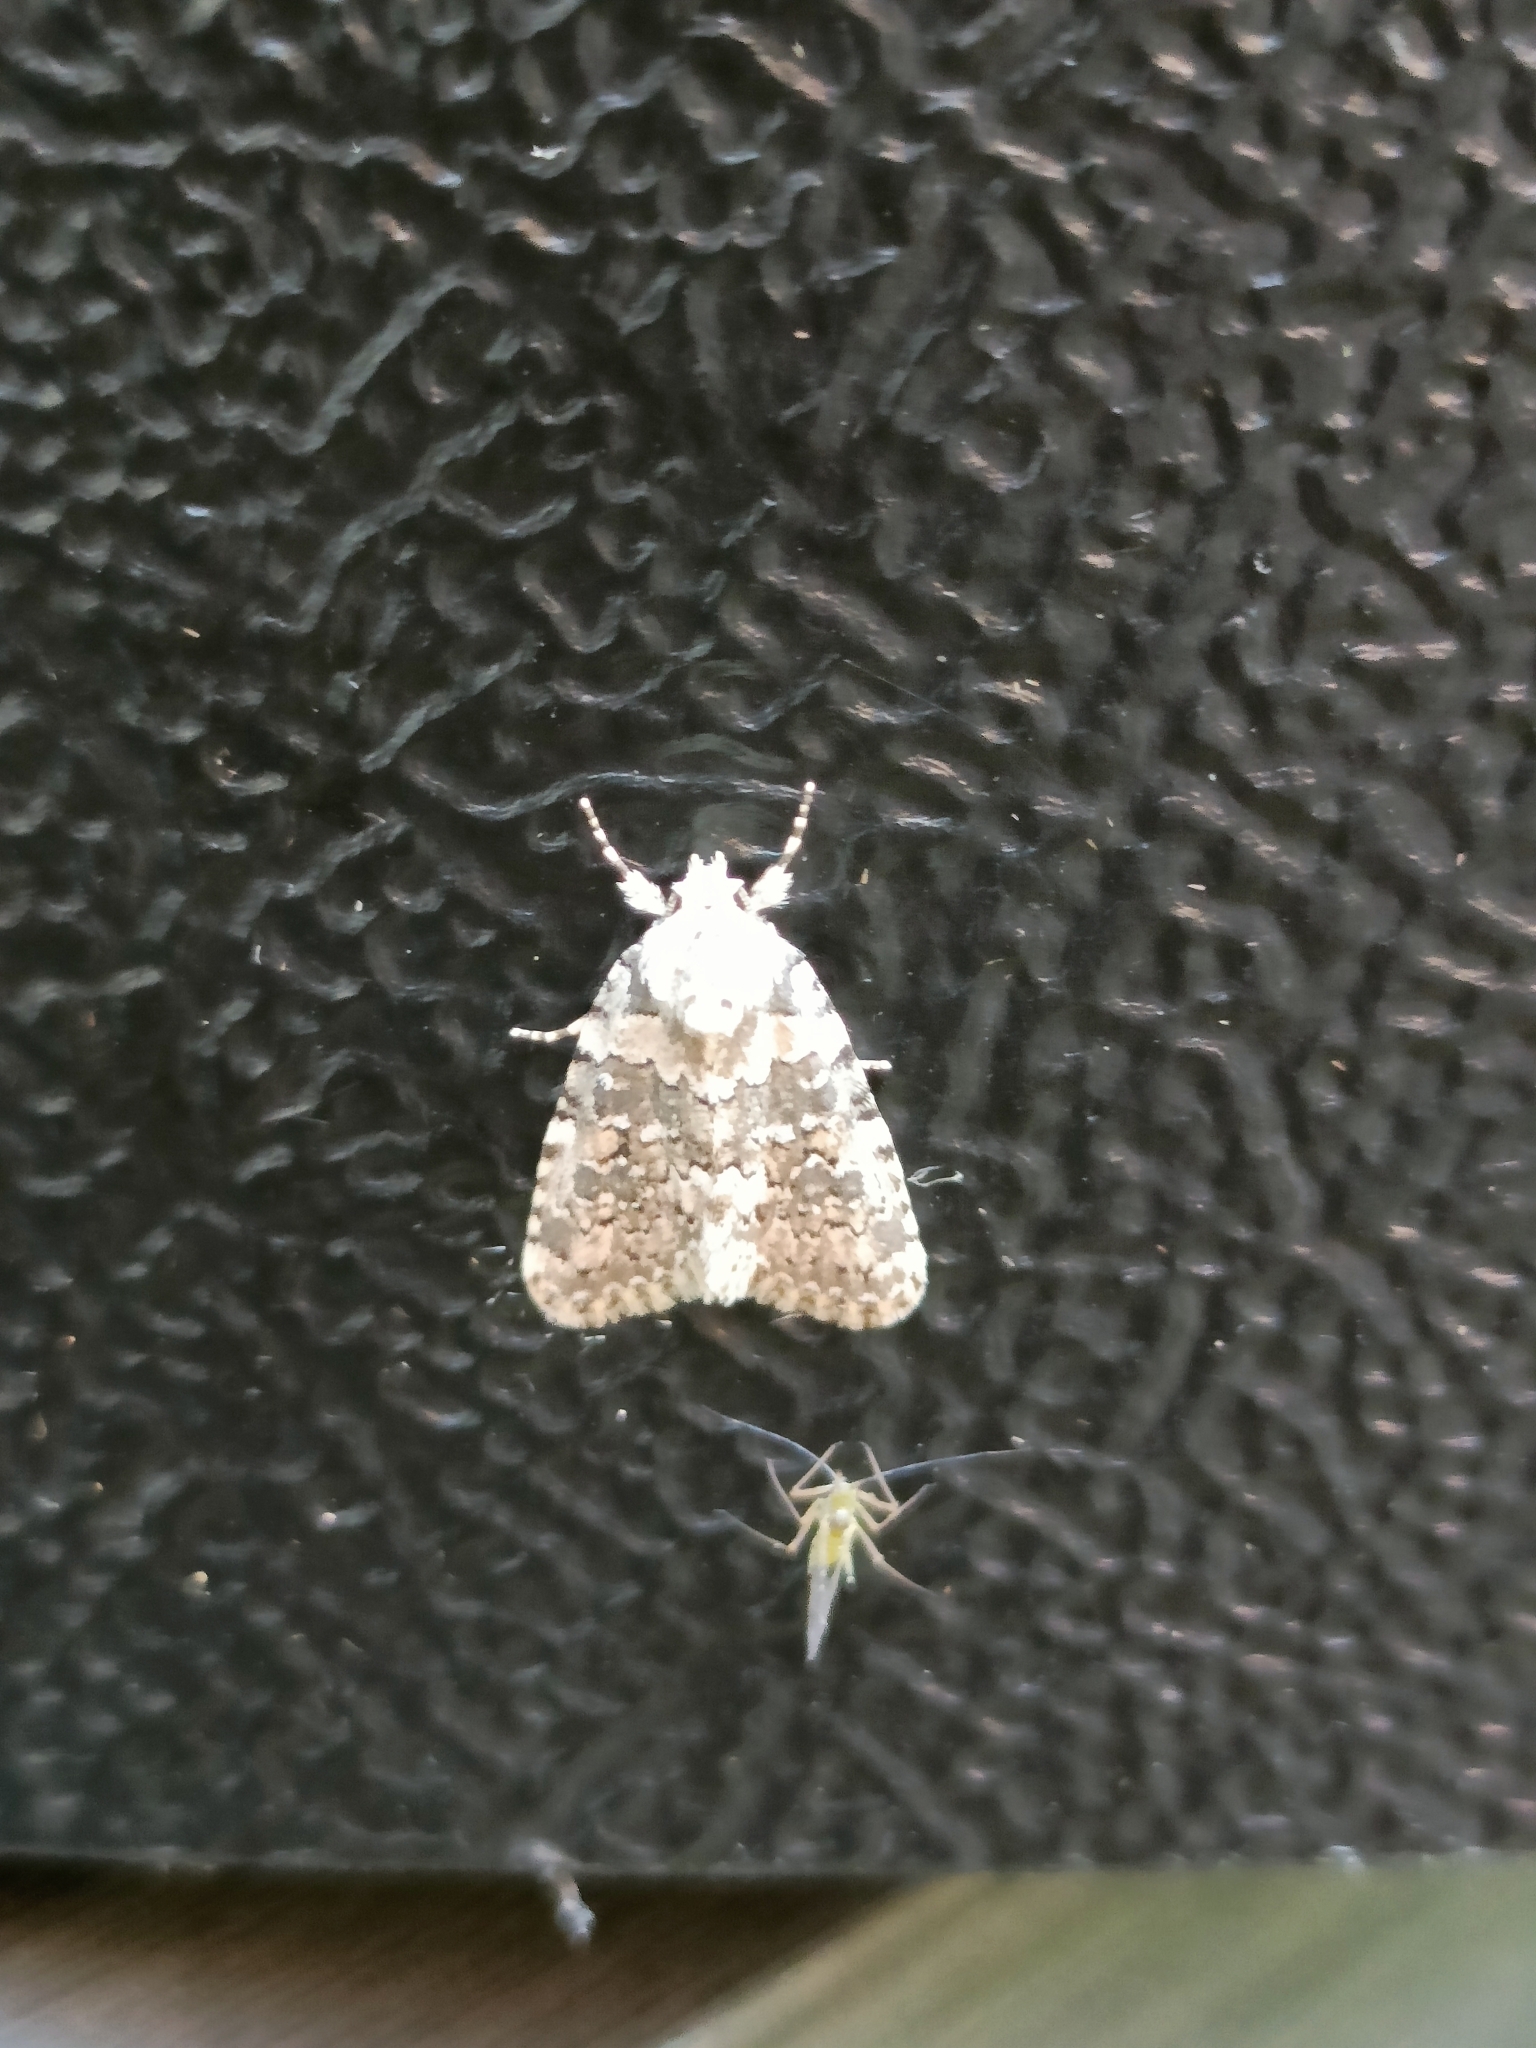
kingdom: Animalia
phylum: Arthropoda
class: Insecta
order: Lepidoptera
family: Noctuidae
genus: Bryophila
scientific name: Bryophila domestica
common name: Marbled beauty
